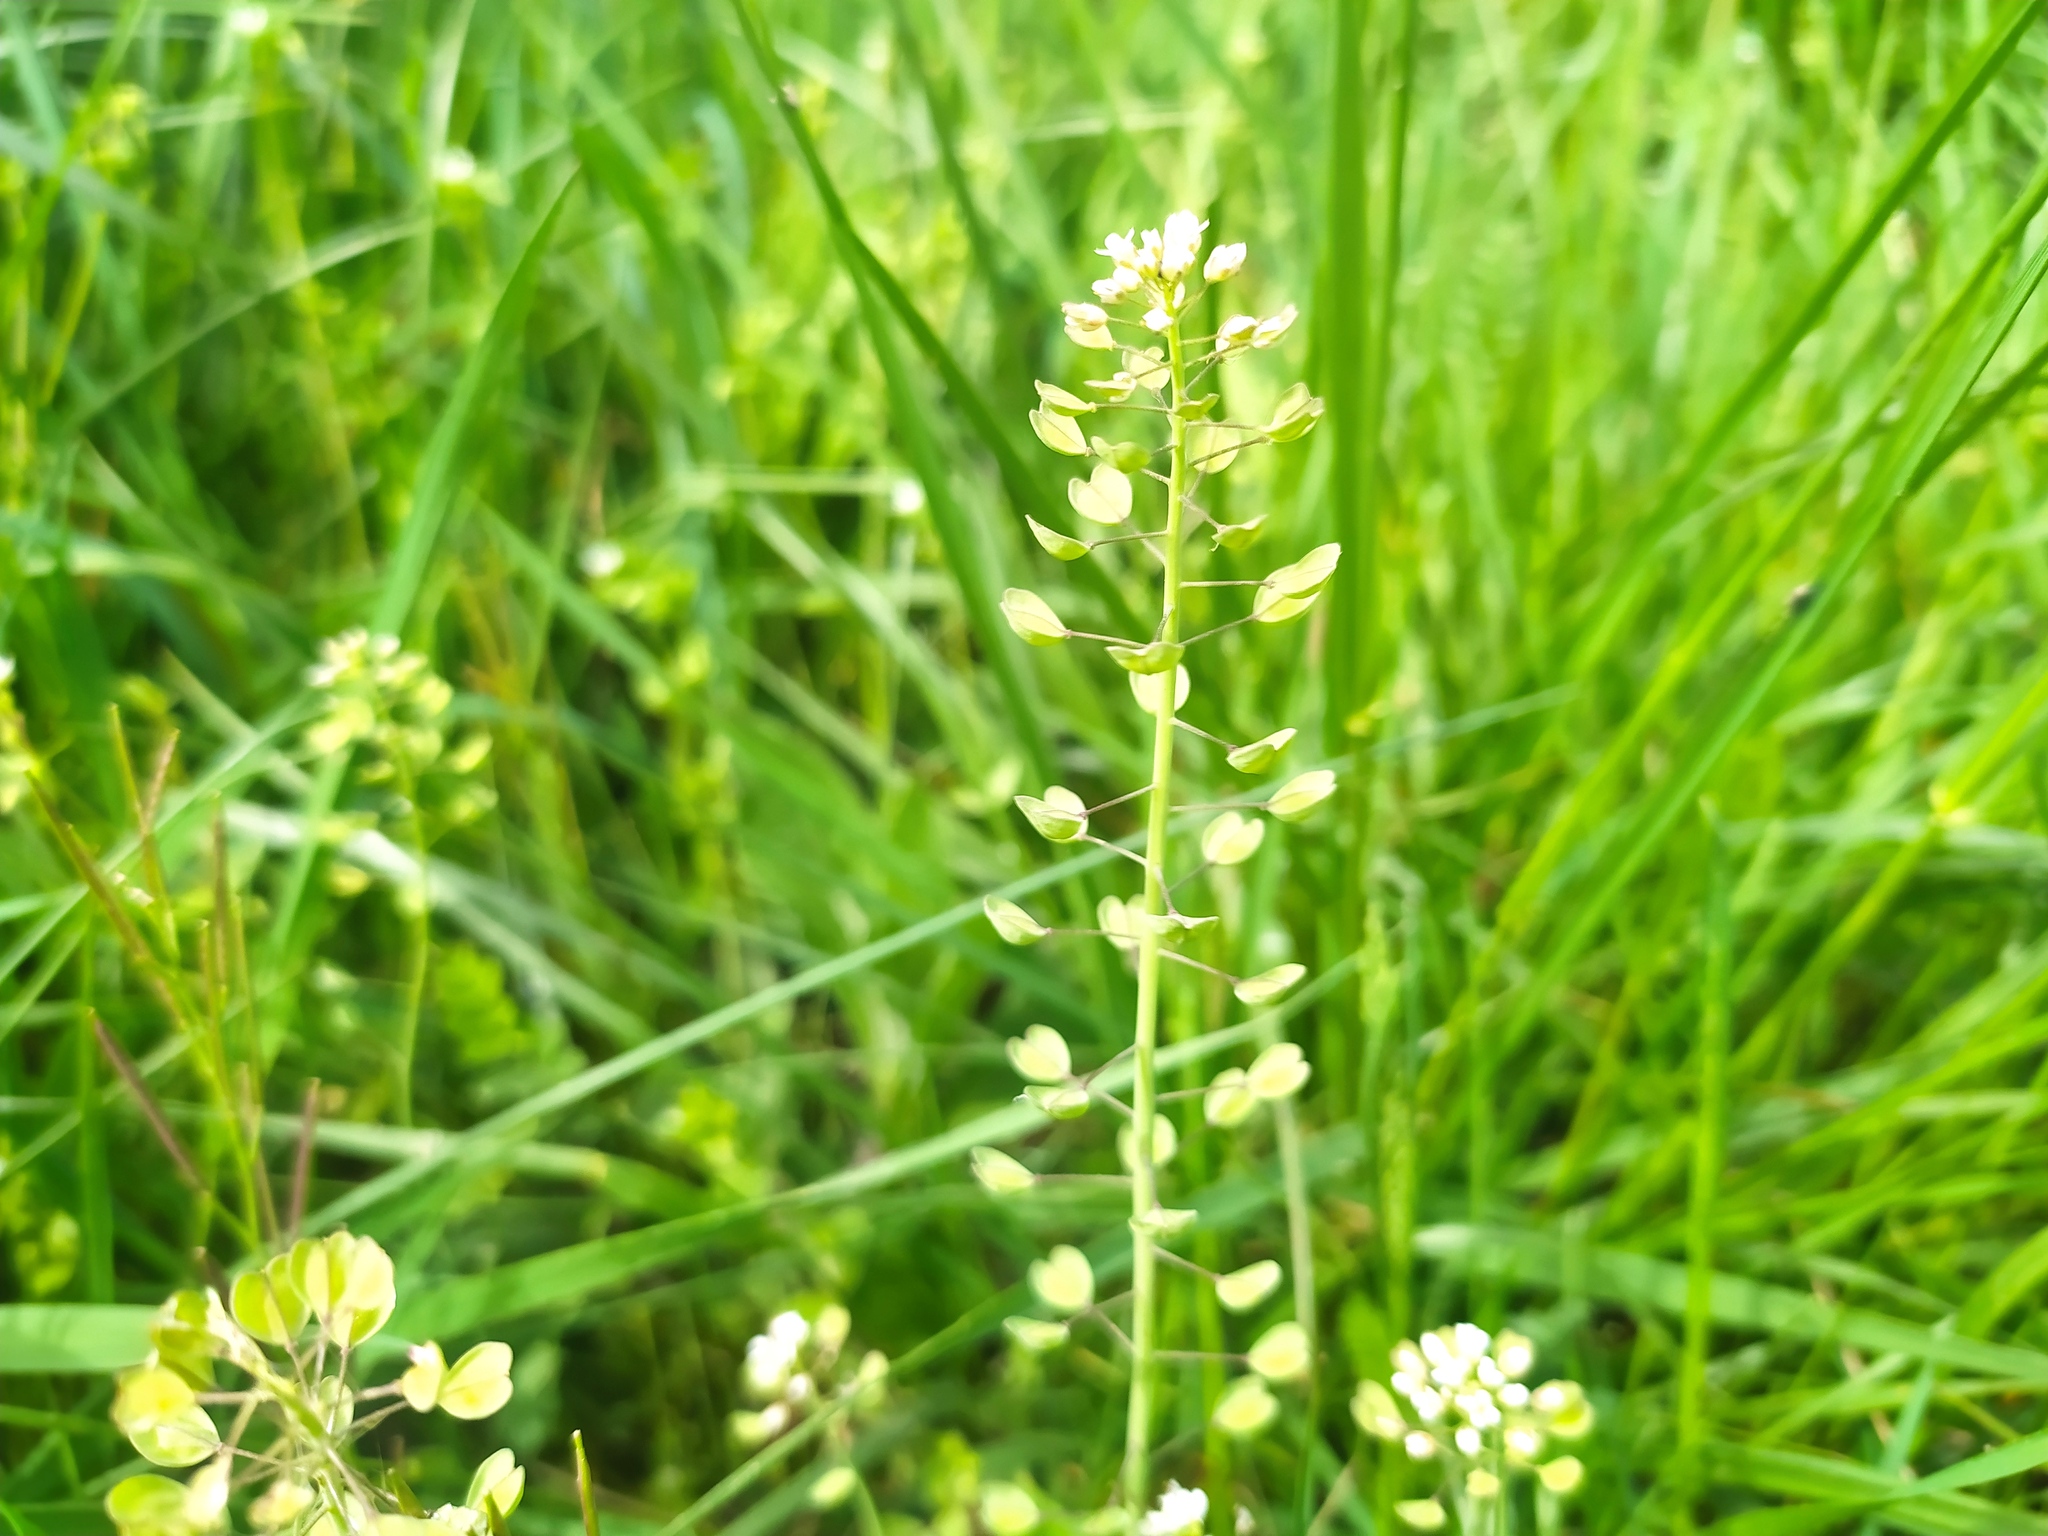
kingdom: Plantae
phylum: Tracheophyta
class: Magnoliopsida
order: Brassicales
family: Brassicaceae
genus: Noccaea
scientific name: Noccaea perfoliata
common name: Perfoliate pennycress
